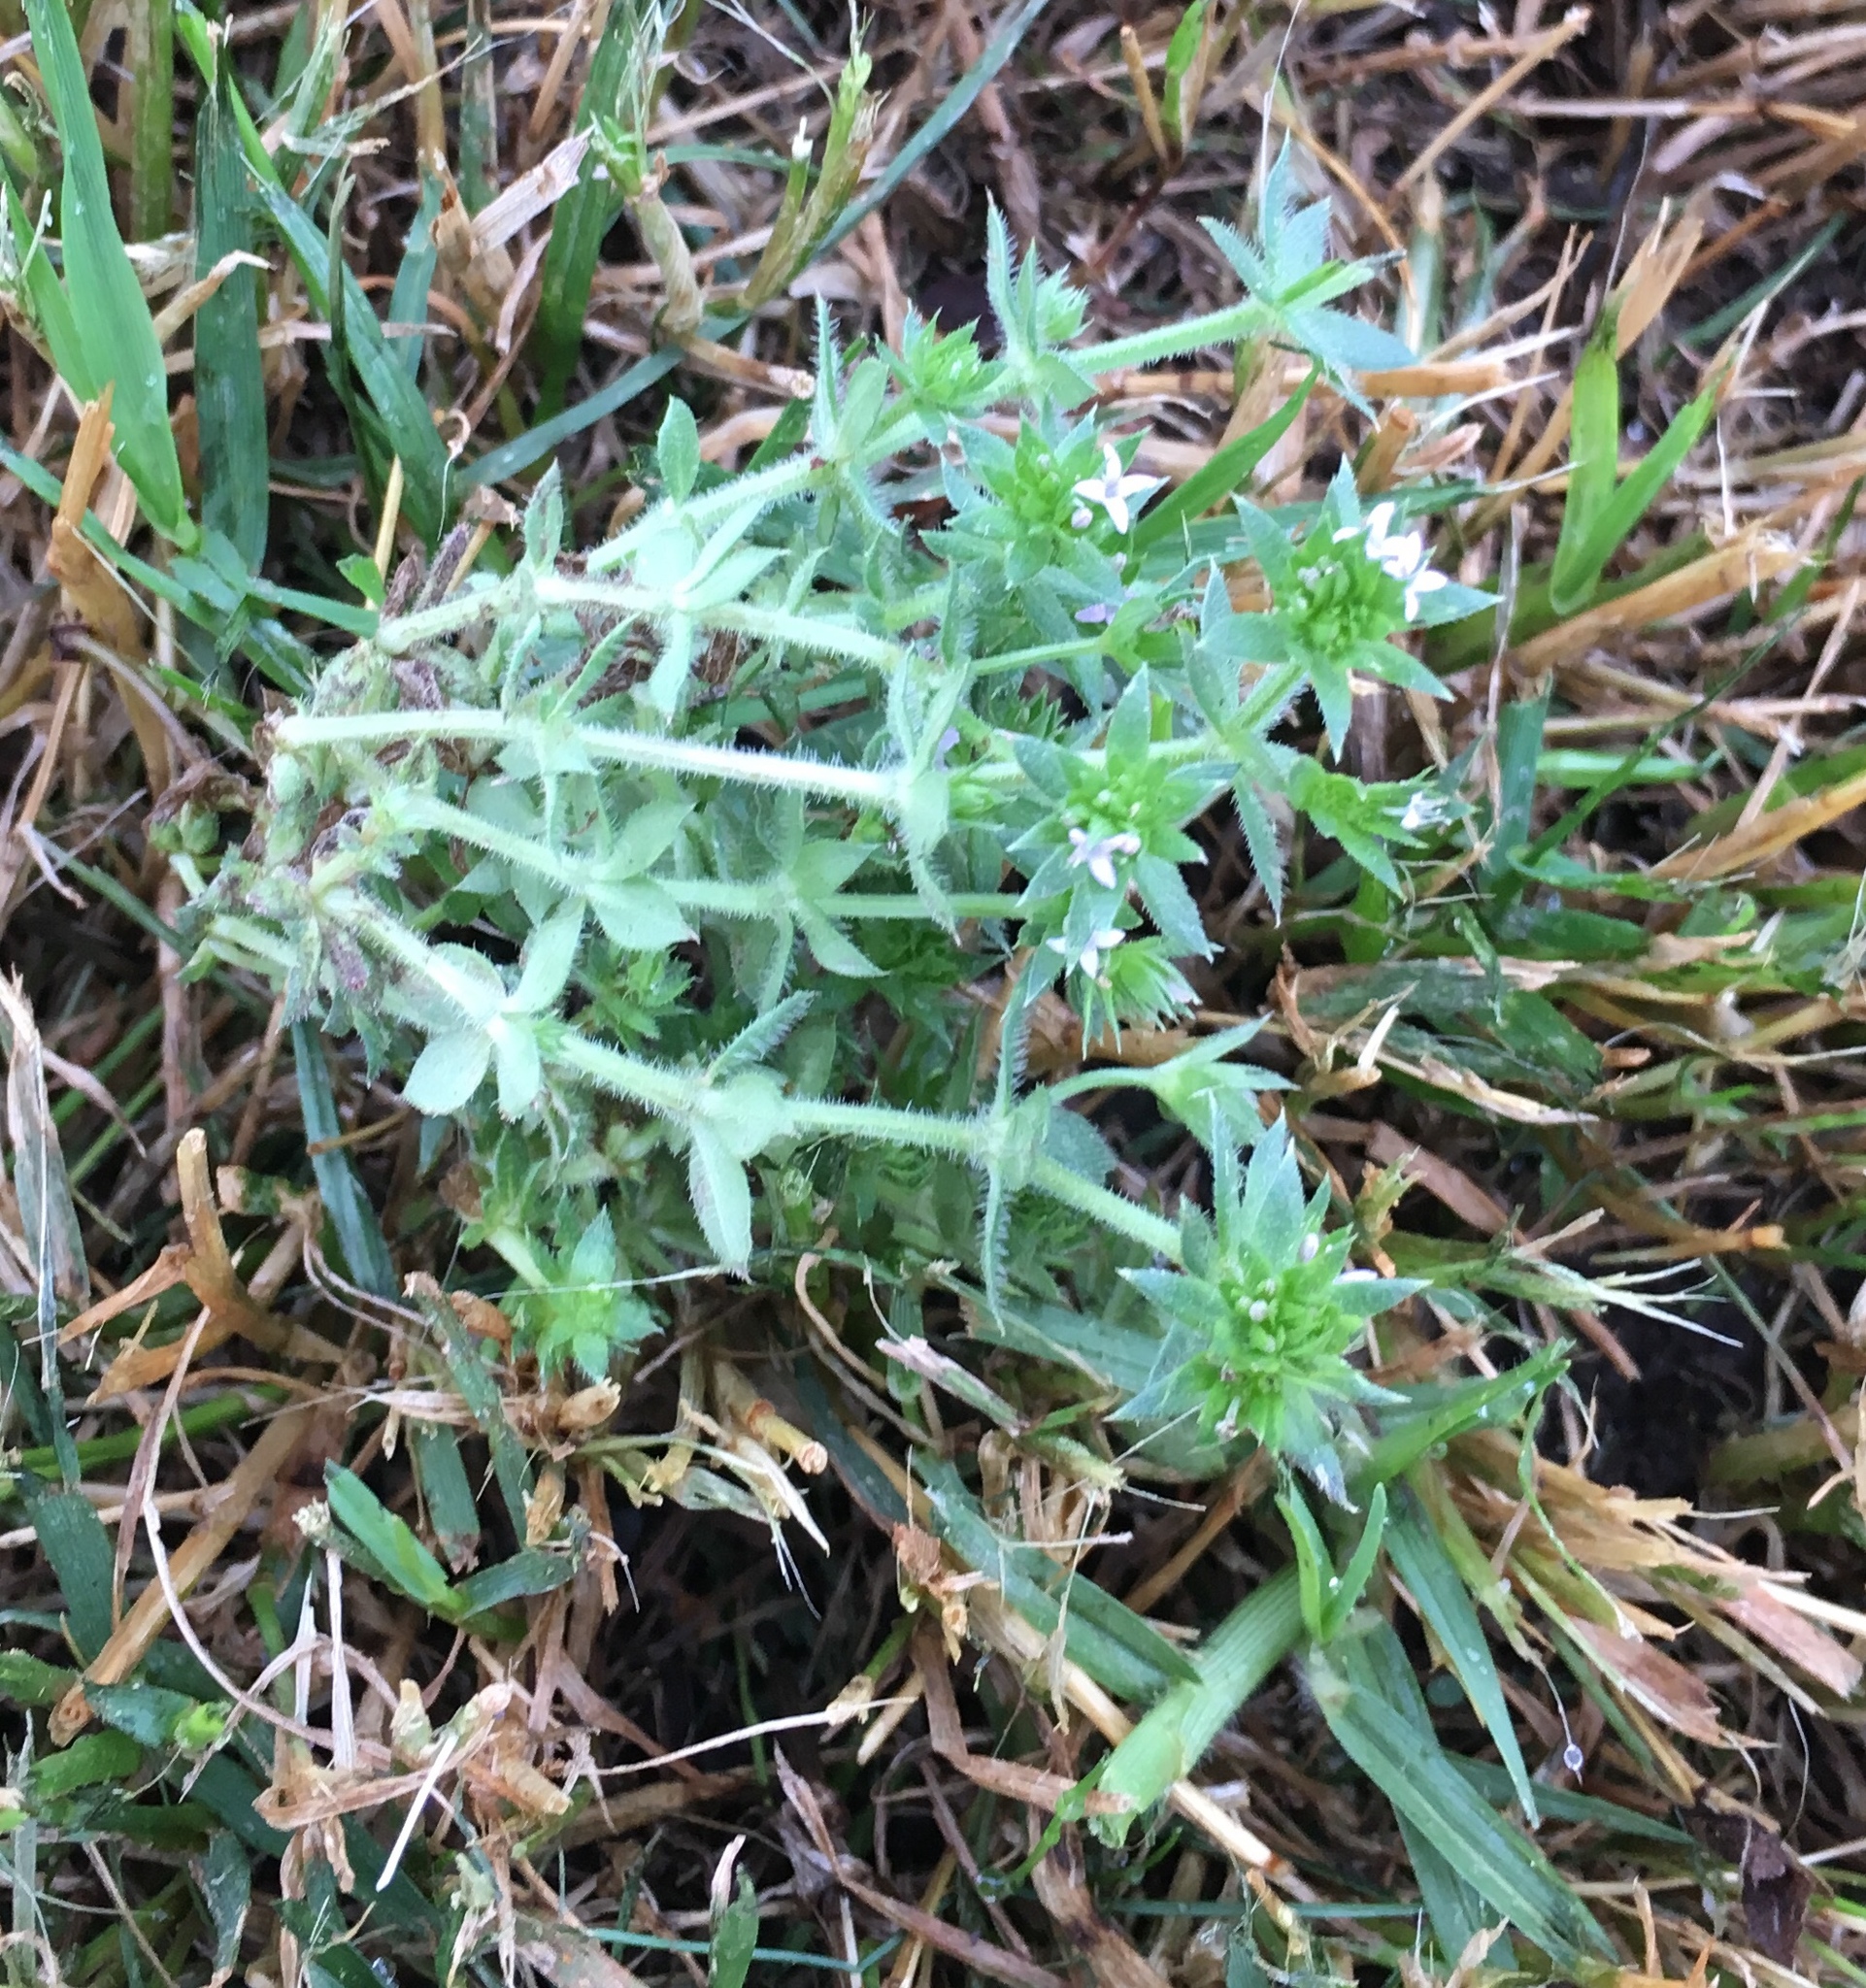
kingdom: Plantae
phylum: Tracheophyta
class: Magnoliopsida
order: Gentianales
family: Rubiaceae
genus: Sherardia
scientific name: Sherardia arvensis
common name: Field madder
